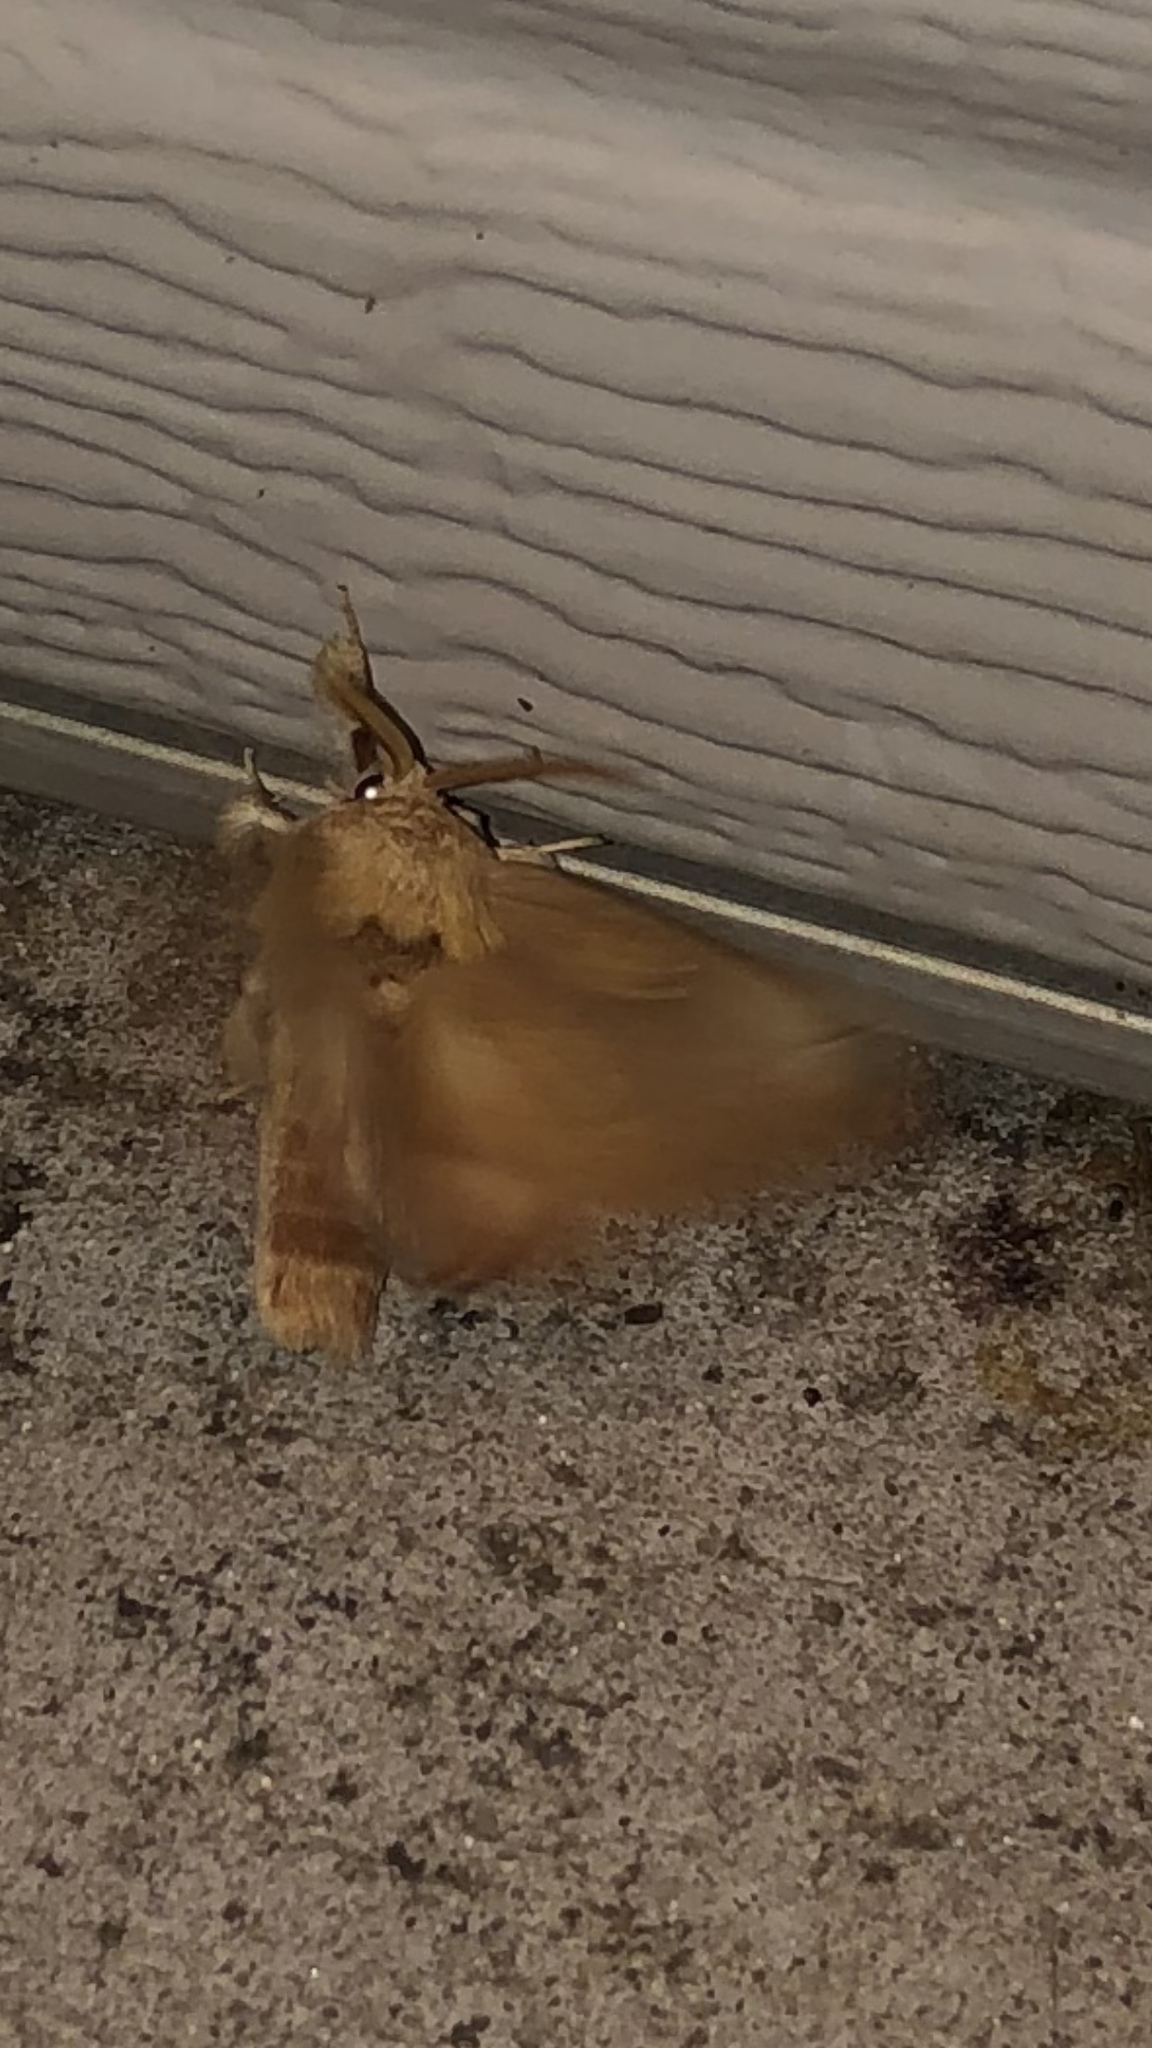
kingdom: Animalia
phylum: Arthropoda
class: Insecta
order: Lepidoptera
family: Notodontidae
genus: Nadata
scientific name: Nadata gibbosa
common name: White-dotted prominent
